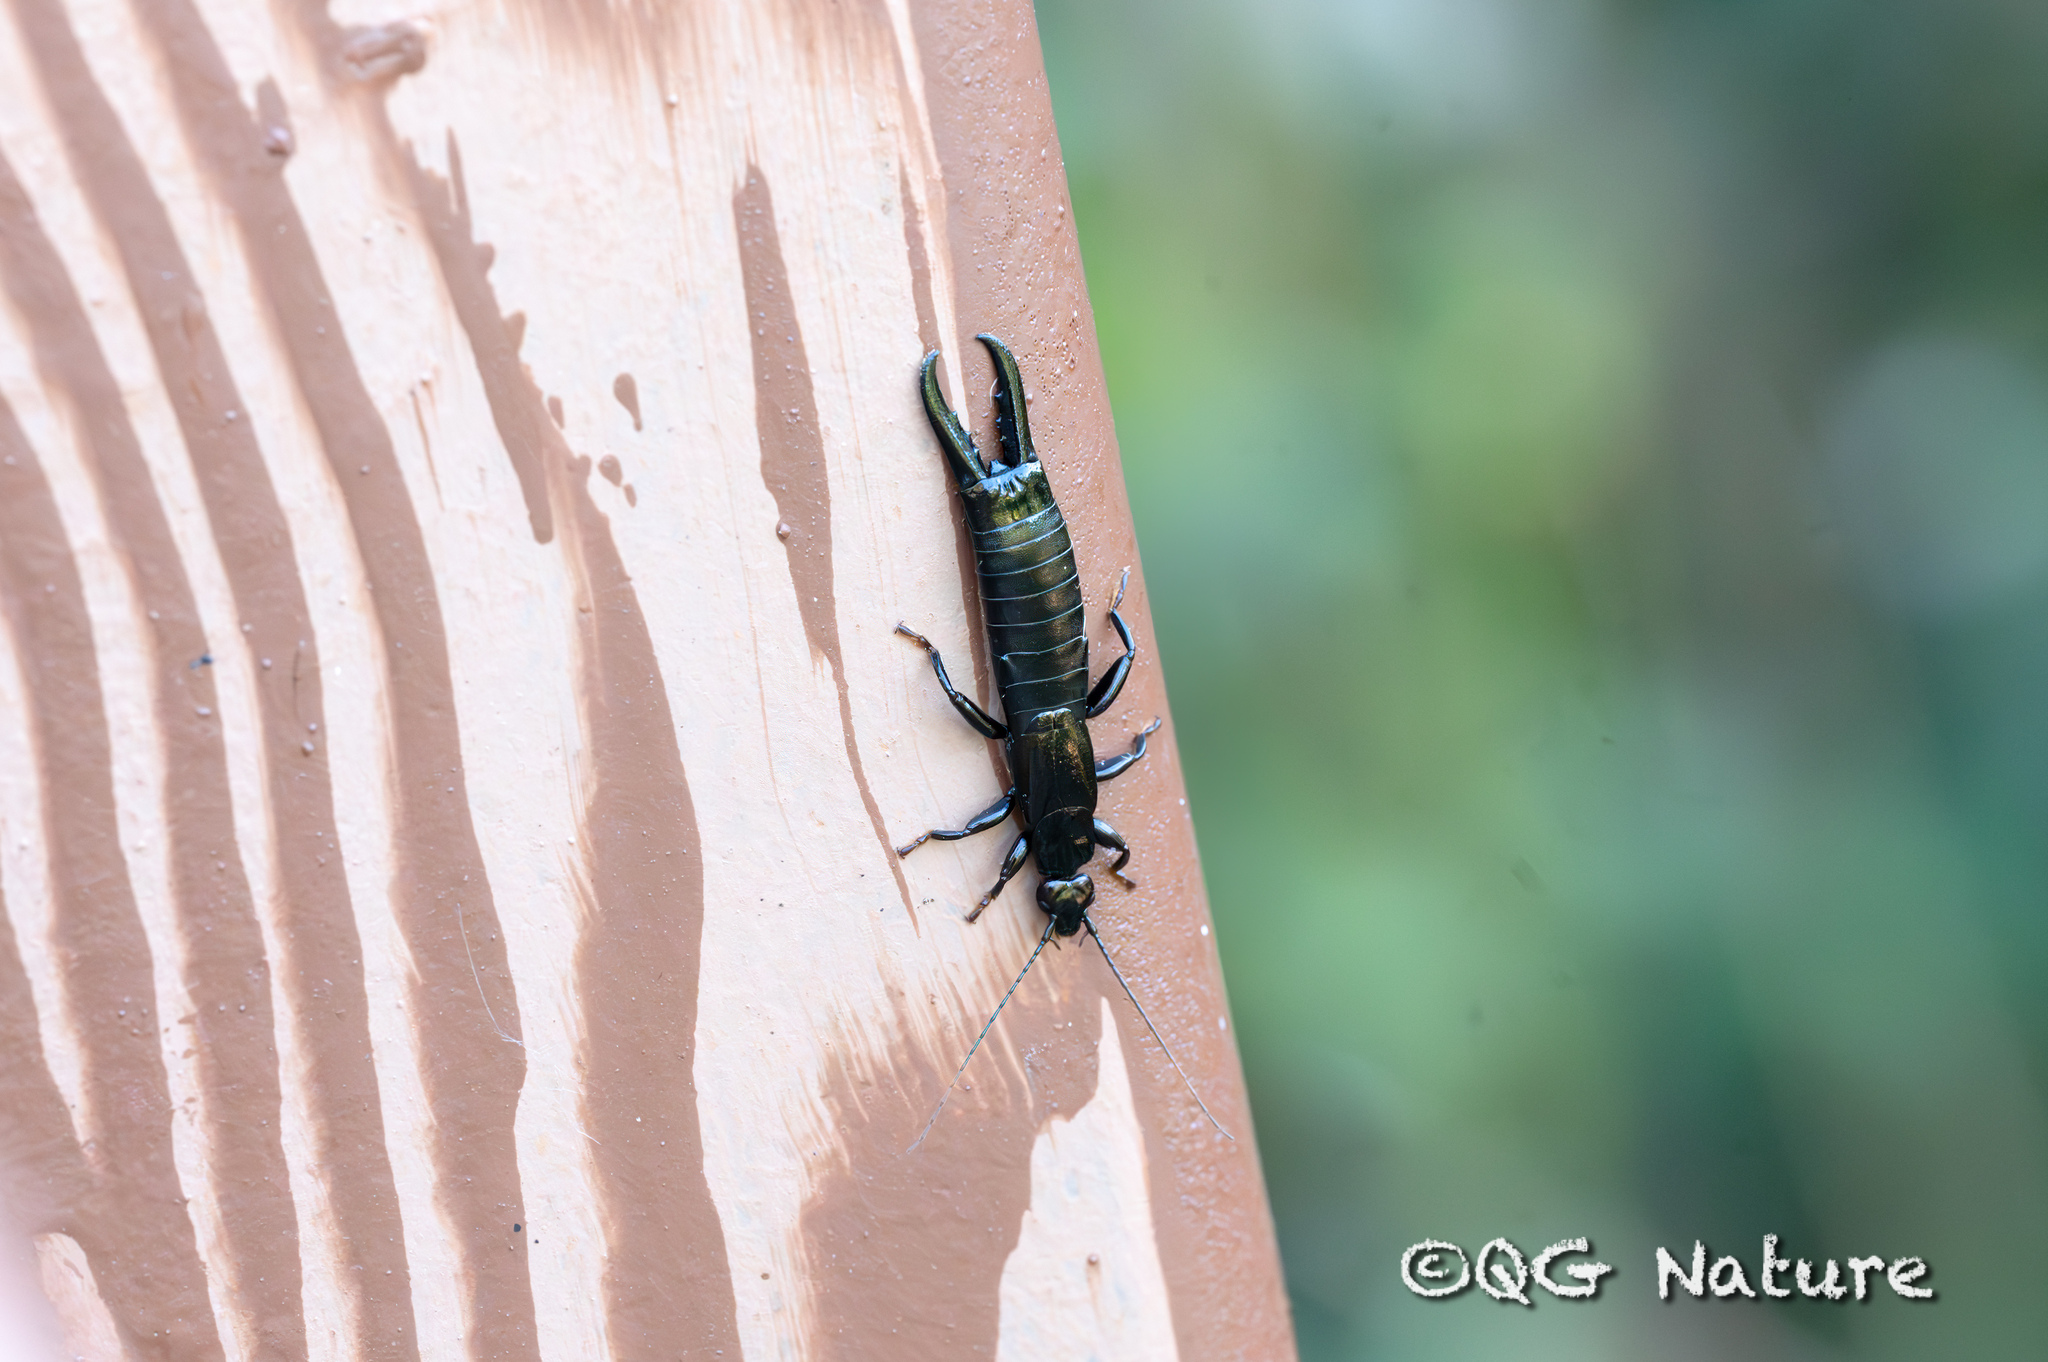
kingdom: Animalia
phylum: Arthropoda
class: Insecta
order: Dermaptera
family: Chelisochidae
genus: Chelisoches
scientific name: Chelisoches morio
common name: Black earwig
